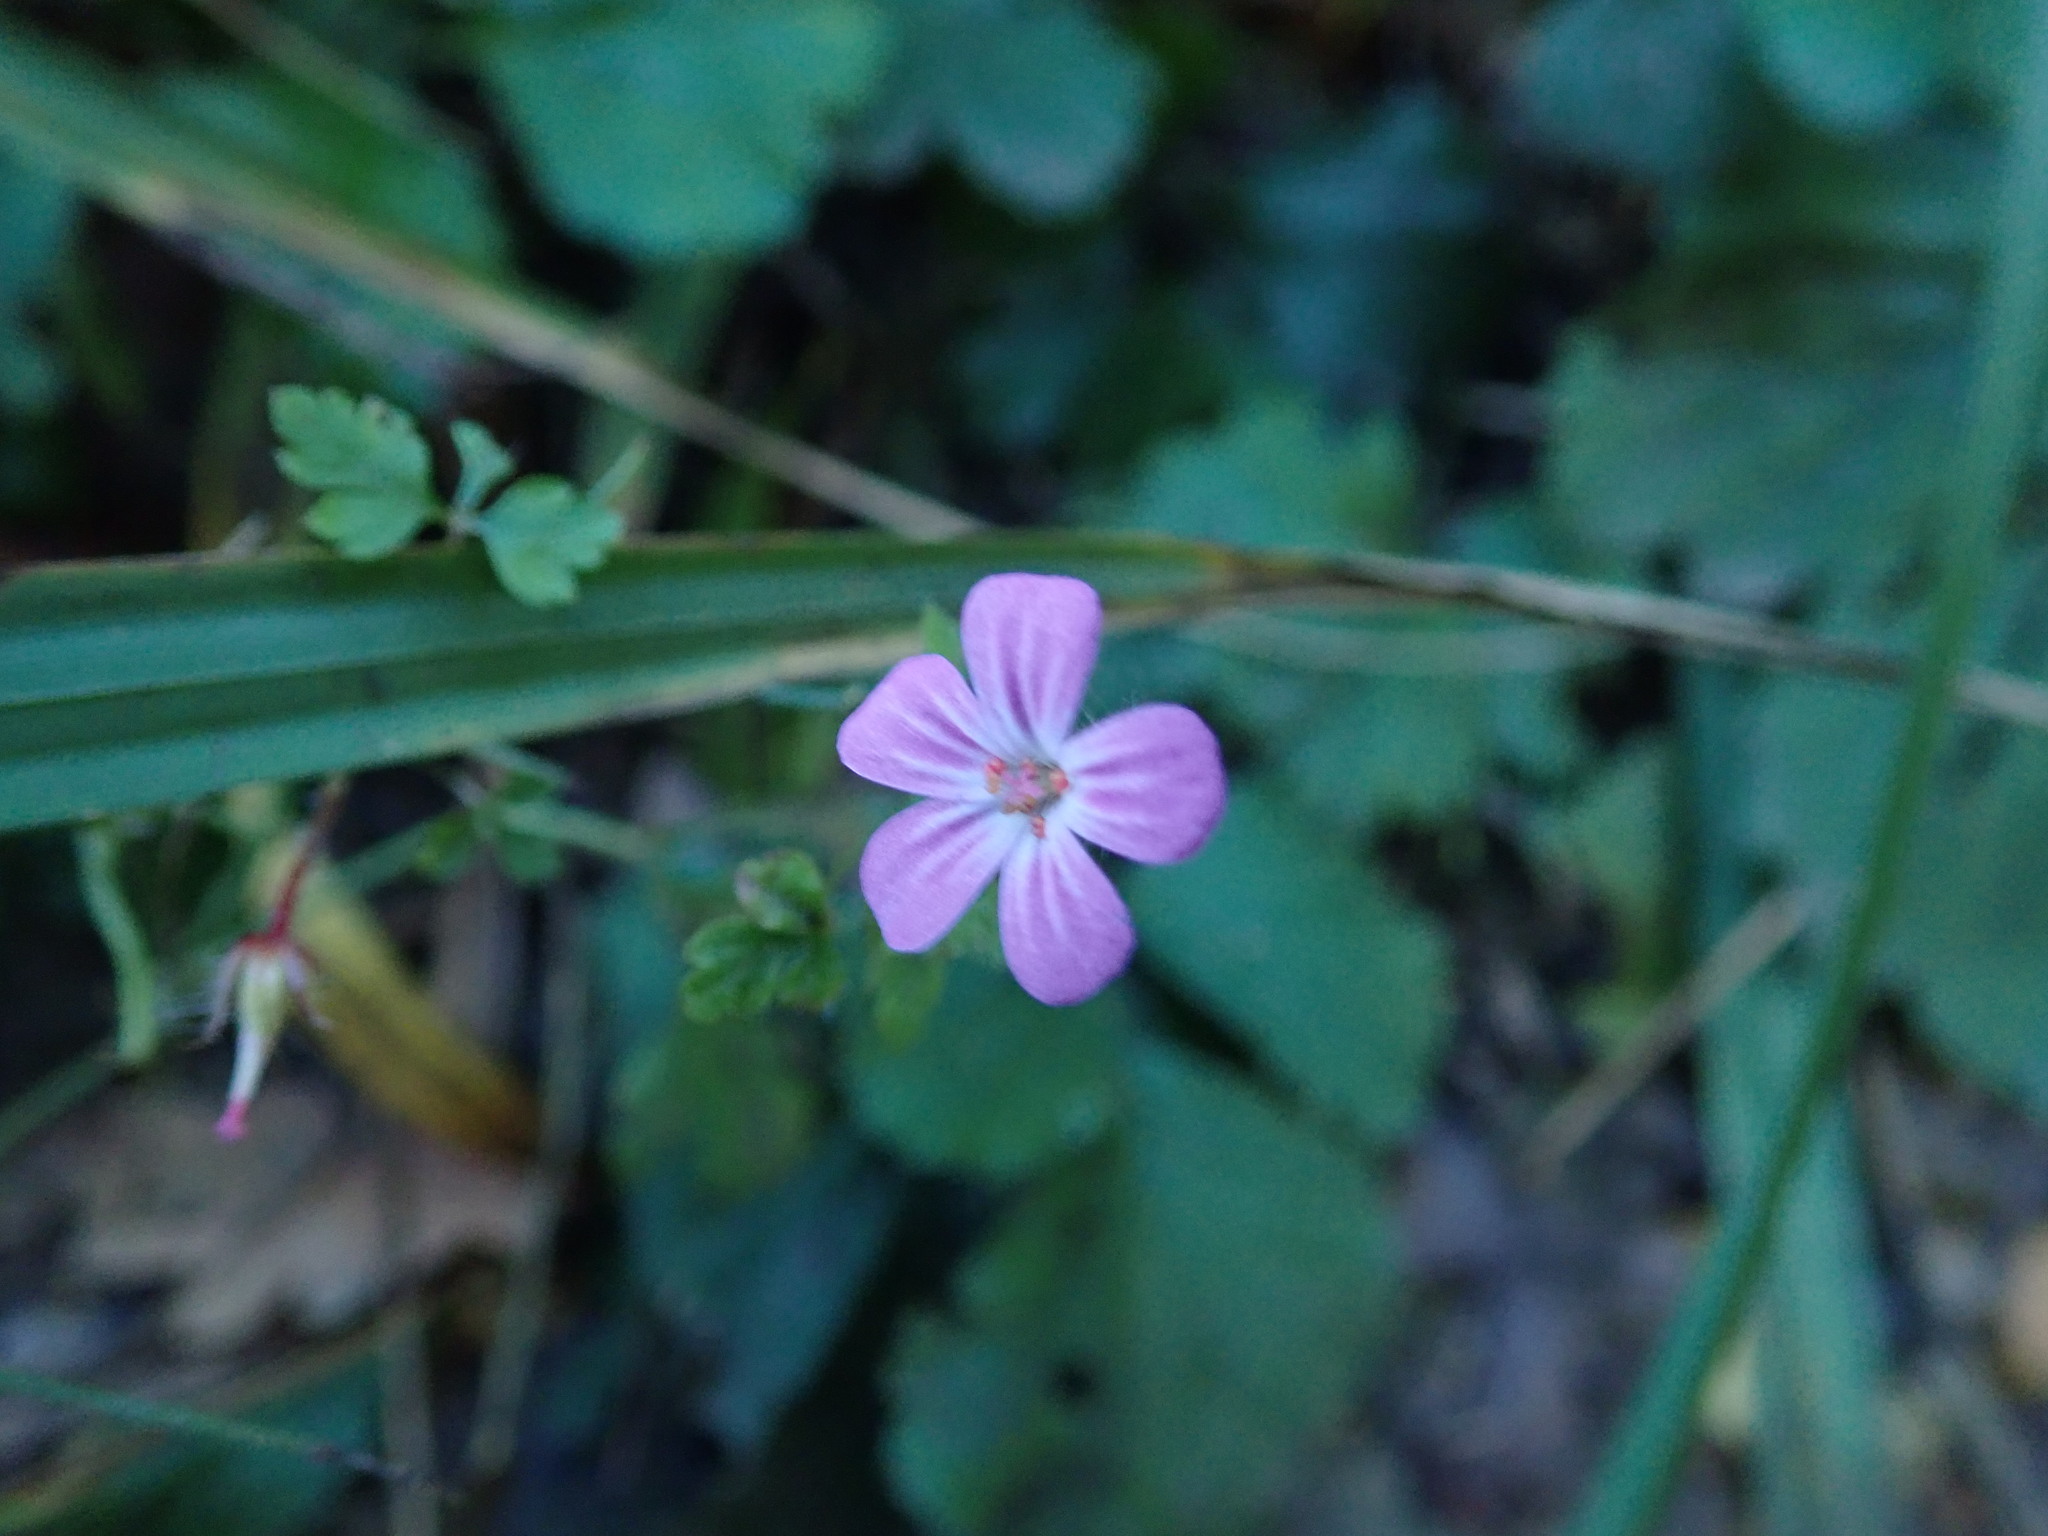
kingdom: Plantae
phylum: Tracheophyta
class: Magnoliopsida
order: Geraniales
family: Geraniaceae
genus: Geranium
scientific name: Geranium robertianum
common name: Herb-robert
